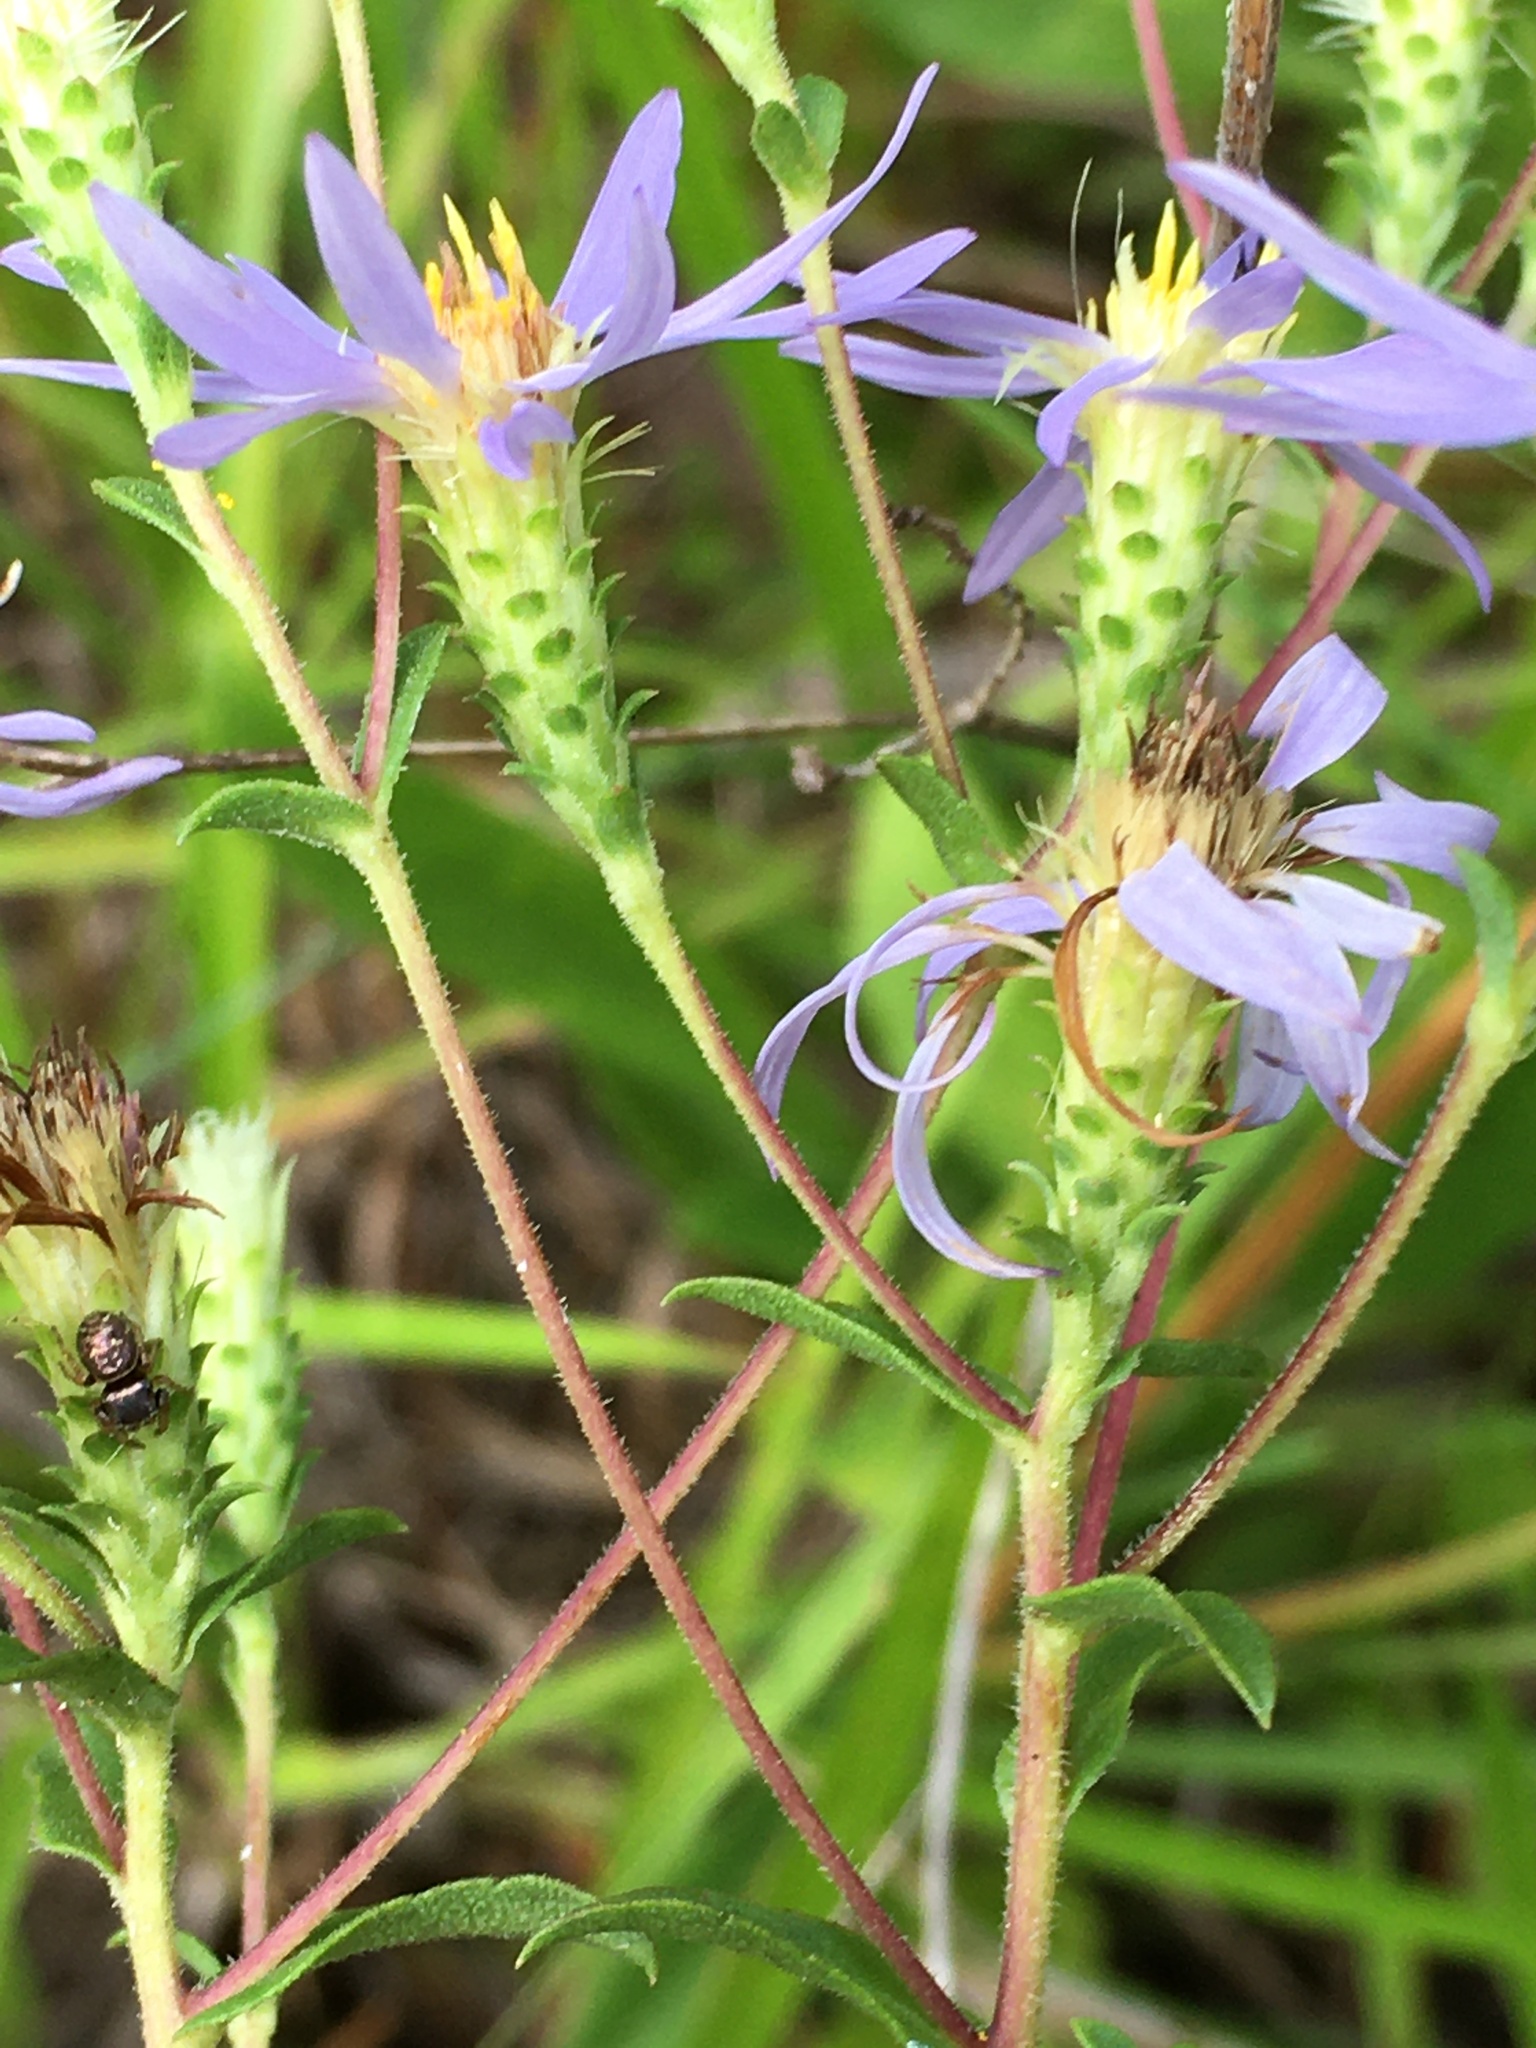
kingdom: Plantae
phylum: Tracheophyta
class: Magnoliopsida
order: Asterales
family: Asteraceae
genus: Eurybia
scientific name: Eurybia compacta
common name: Slender aster
